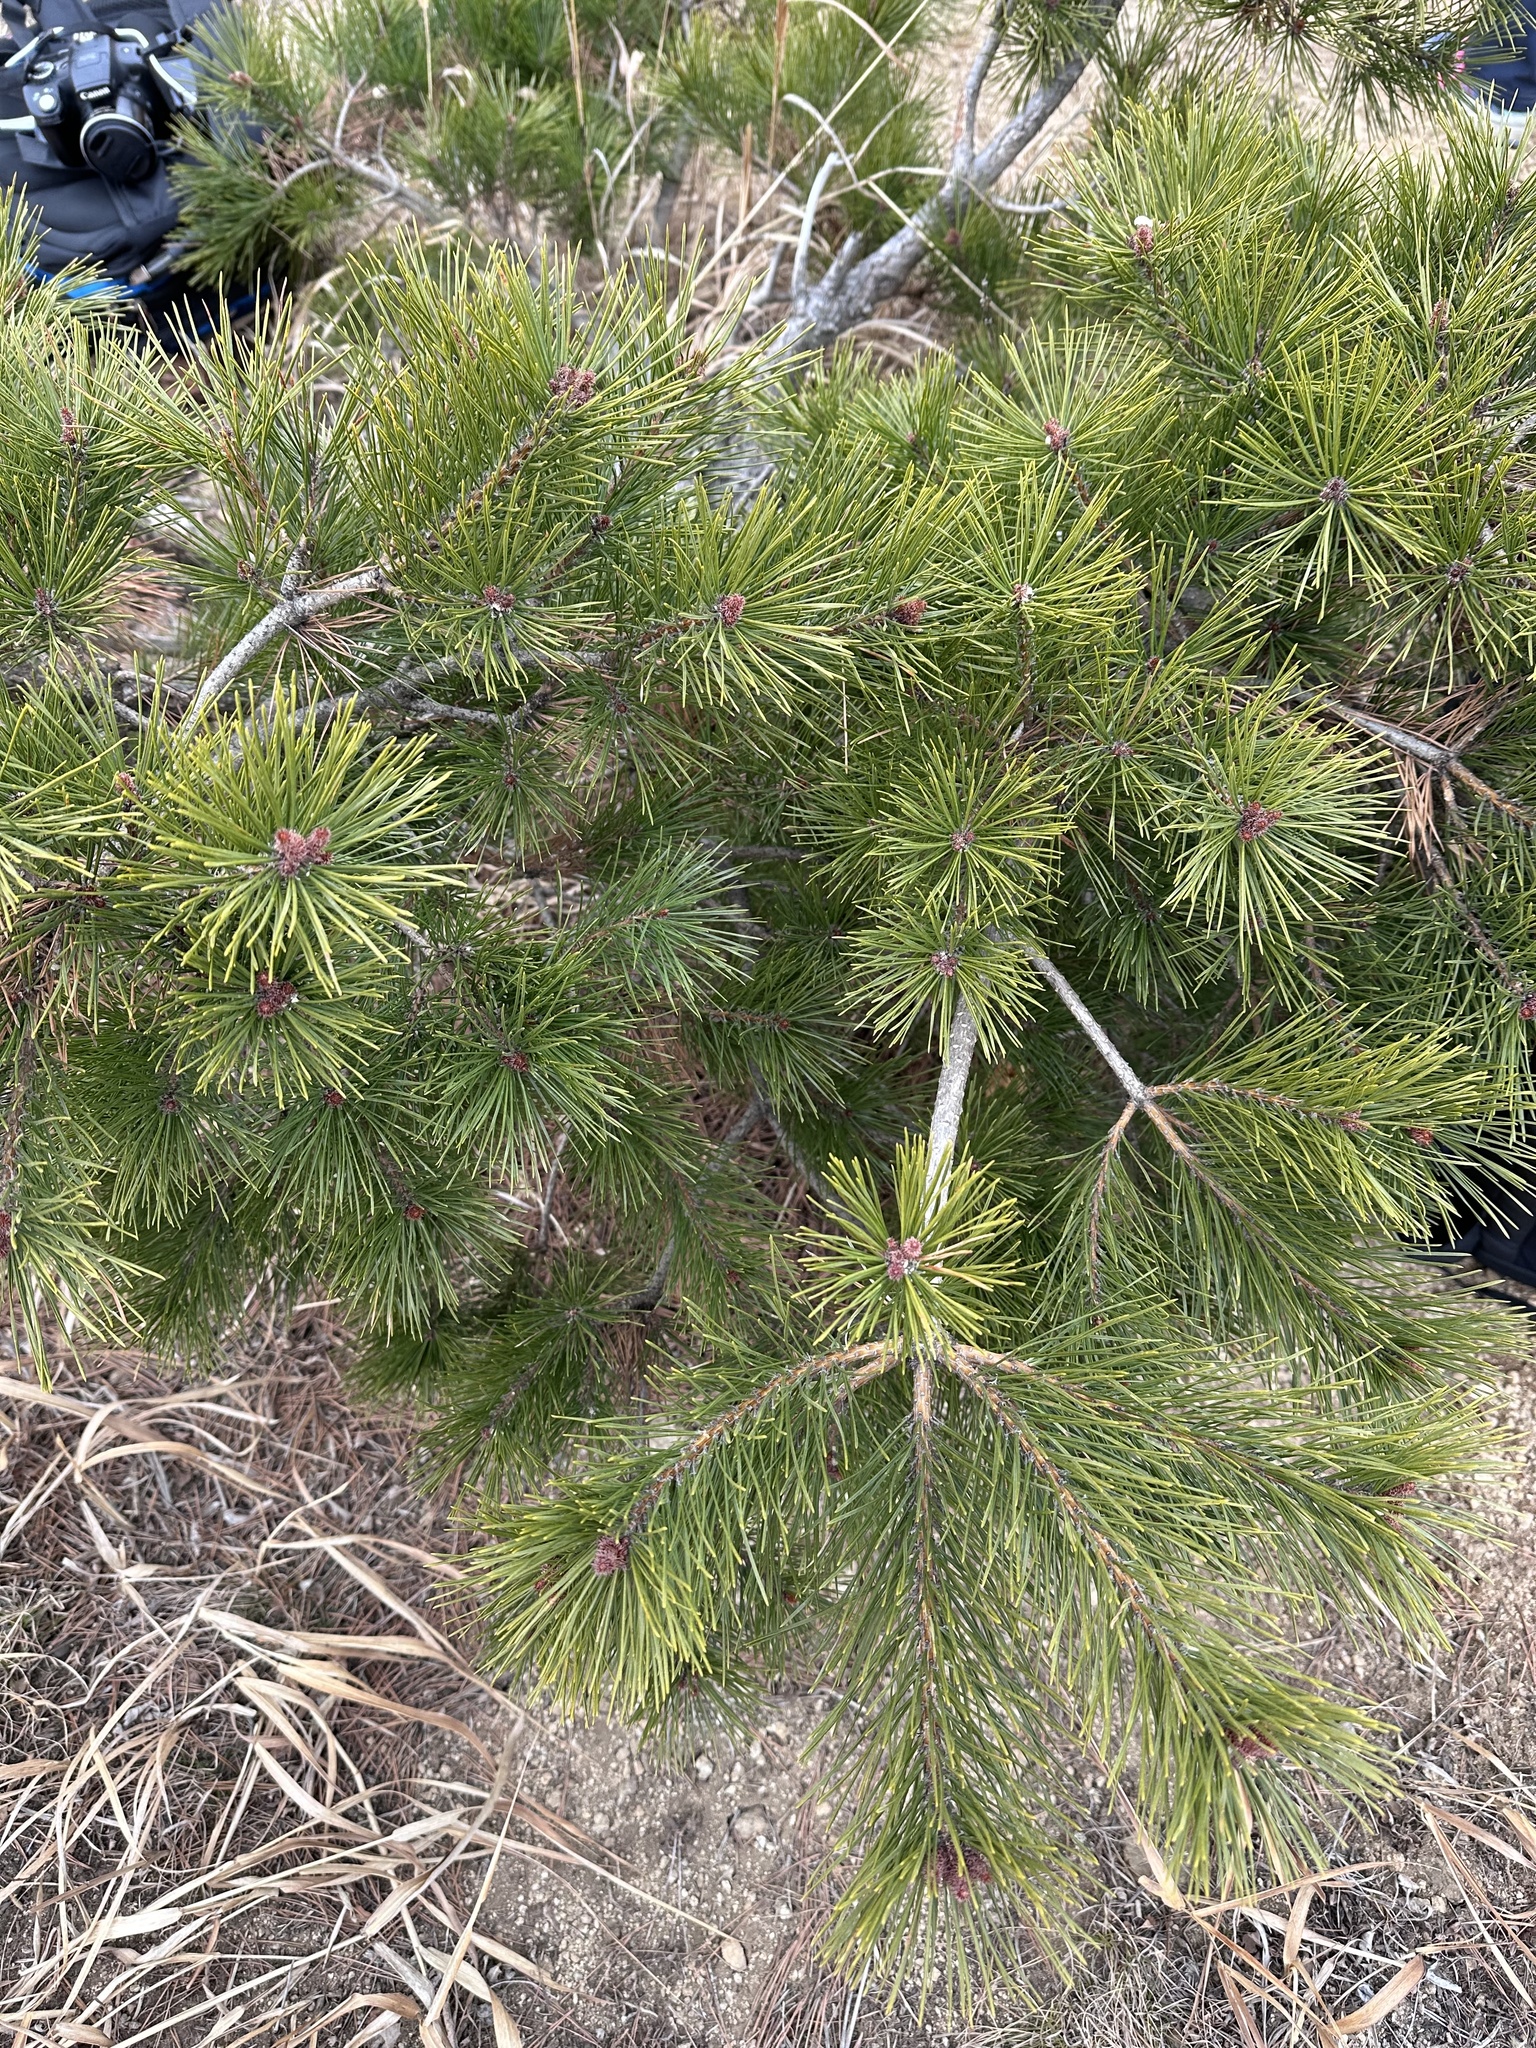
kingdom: Plantae
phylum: Tracheophyta
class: Pinopsida
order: Pinales
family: Pinaceae
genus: Pinus
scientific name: Pinus densiflora
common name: Japanese red pine
